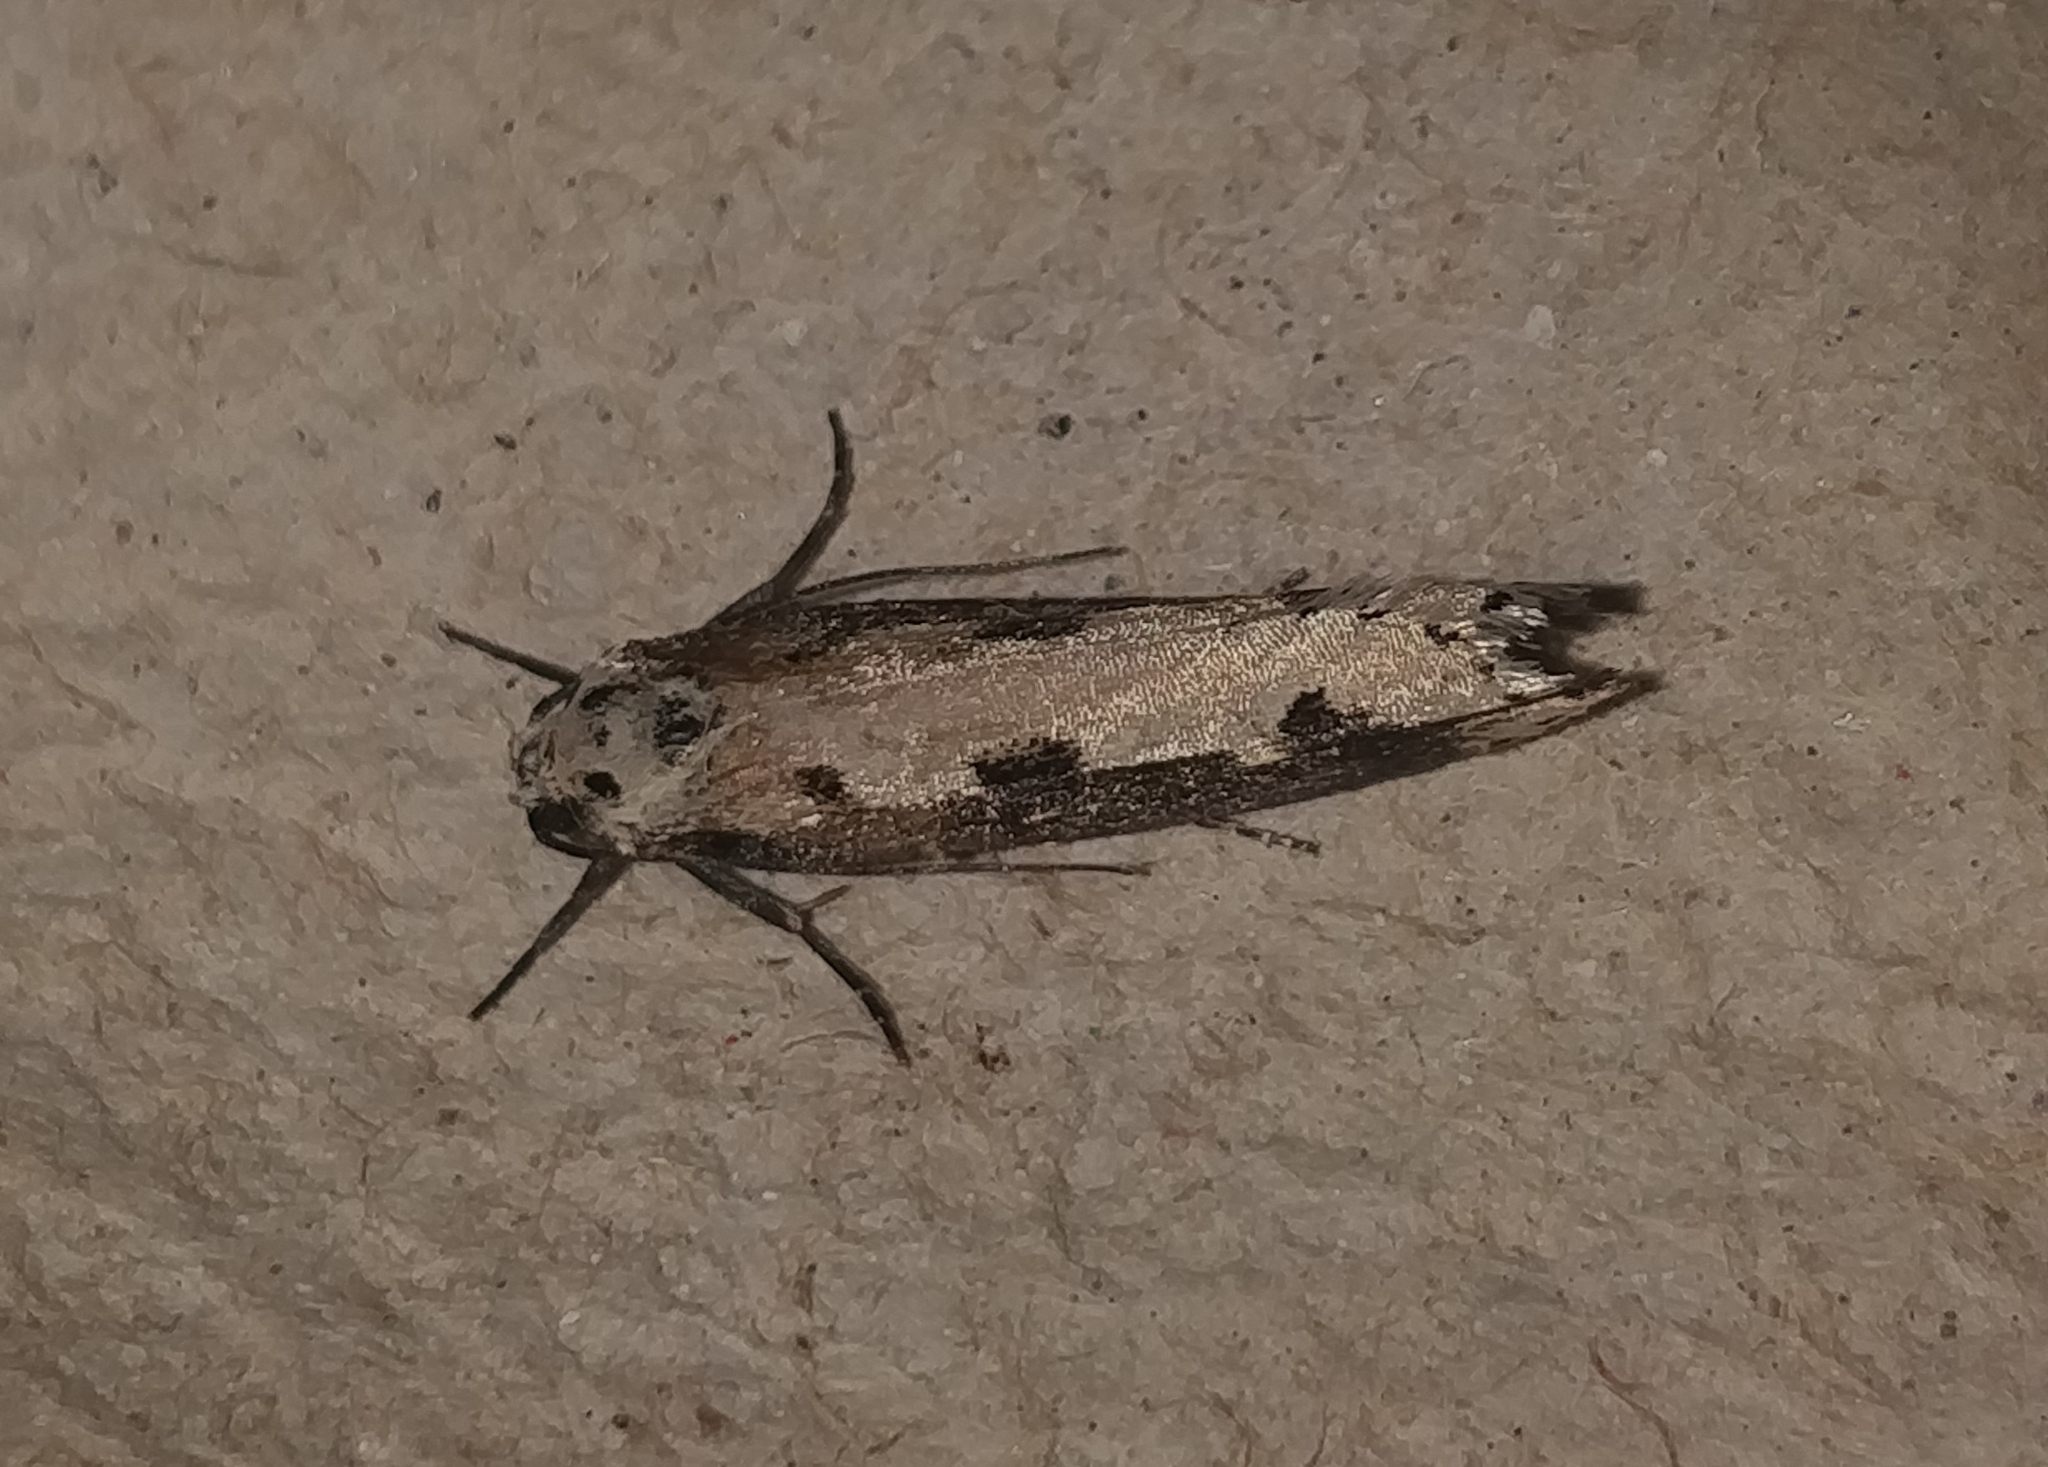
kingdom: Animalia
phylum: Arthropoda
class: Insecta
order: Lepidoptera
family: Ethmiidae
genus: Ethmia
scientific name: Ethmia bipunctella
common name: Bordered ermel
